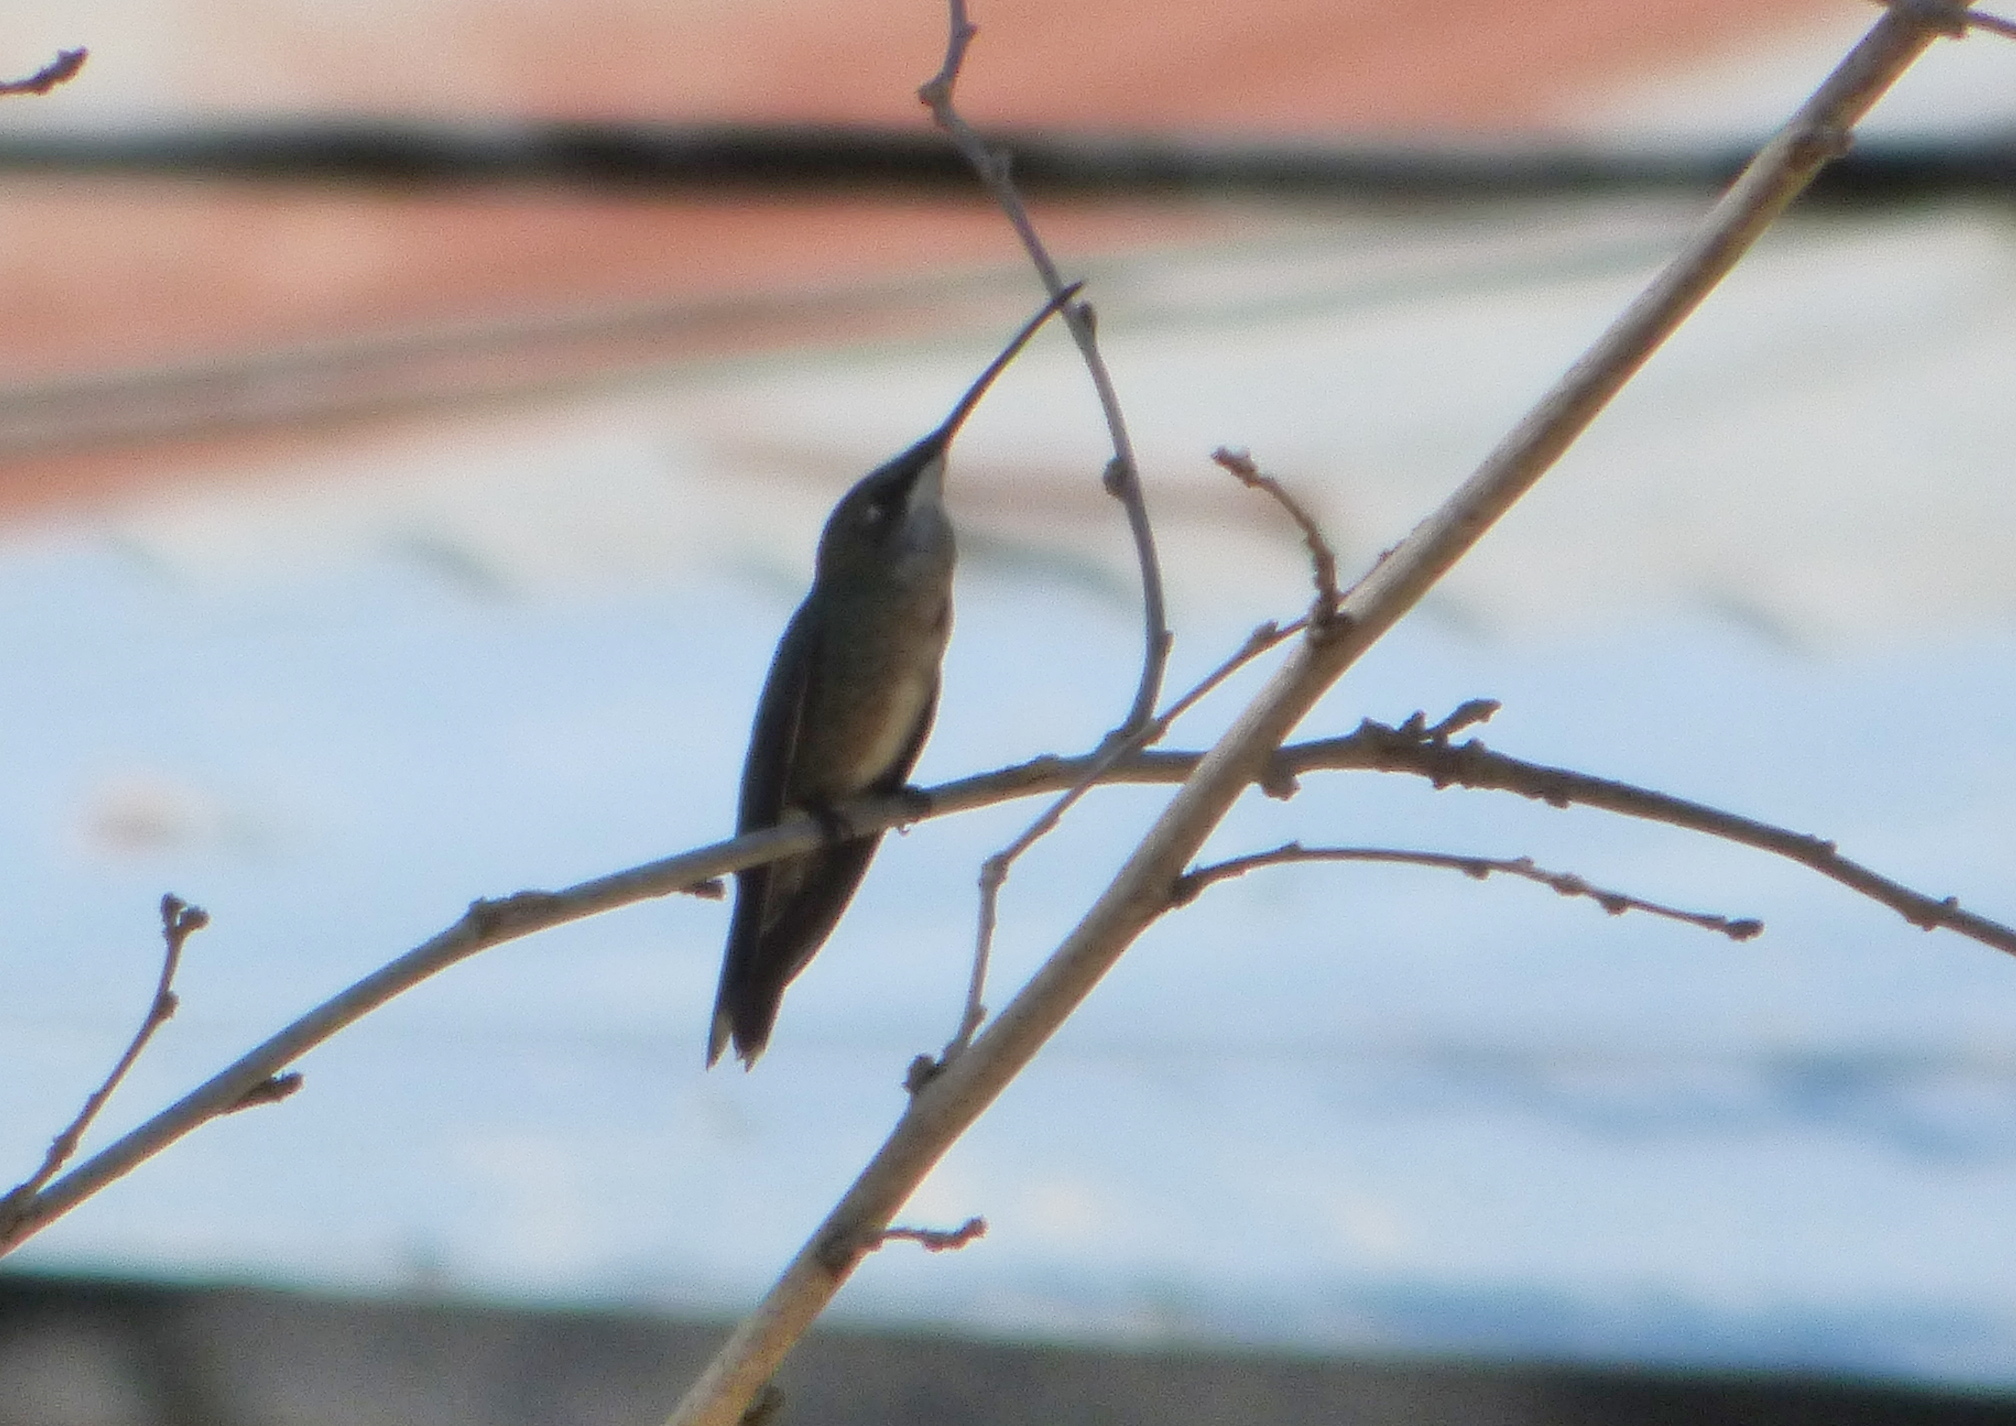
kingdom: Animalia
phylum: Chordata
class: Aves
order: Apodiformes
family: Trochilidae
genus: Heliomaster
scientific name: Heliomaster furcifer
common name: Blue-tufted starthroat
